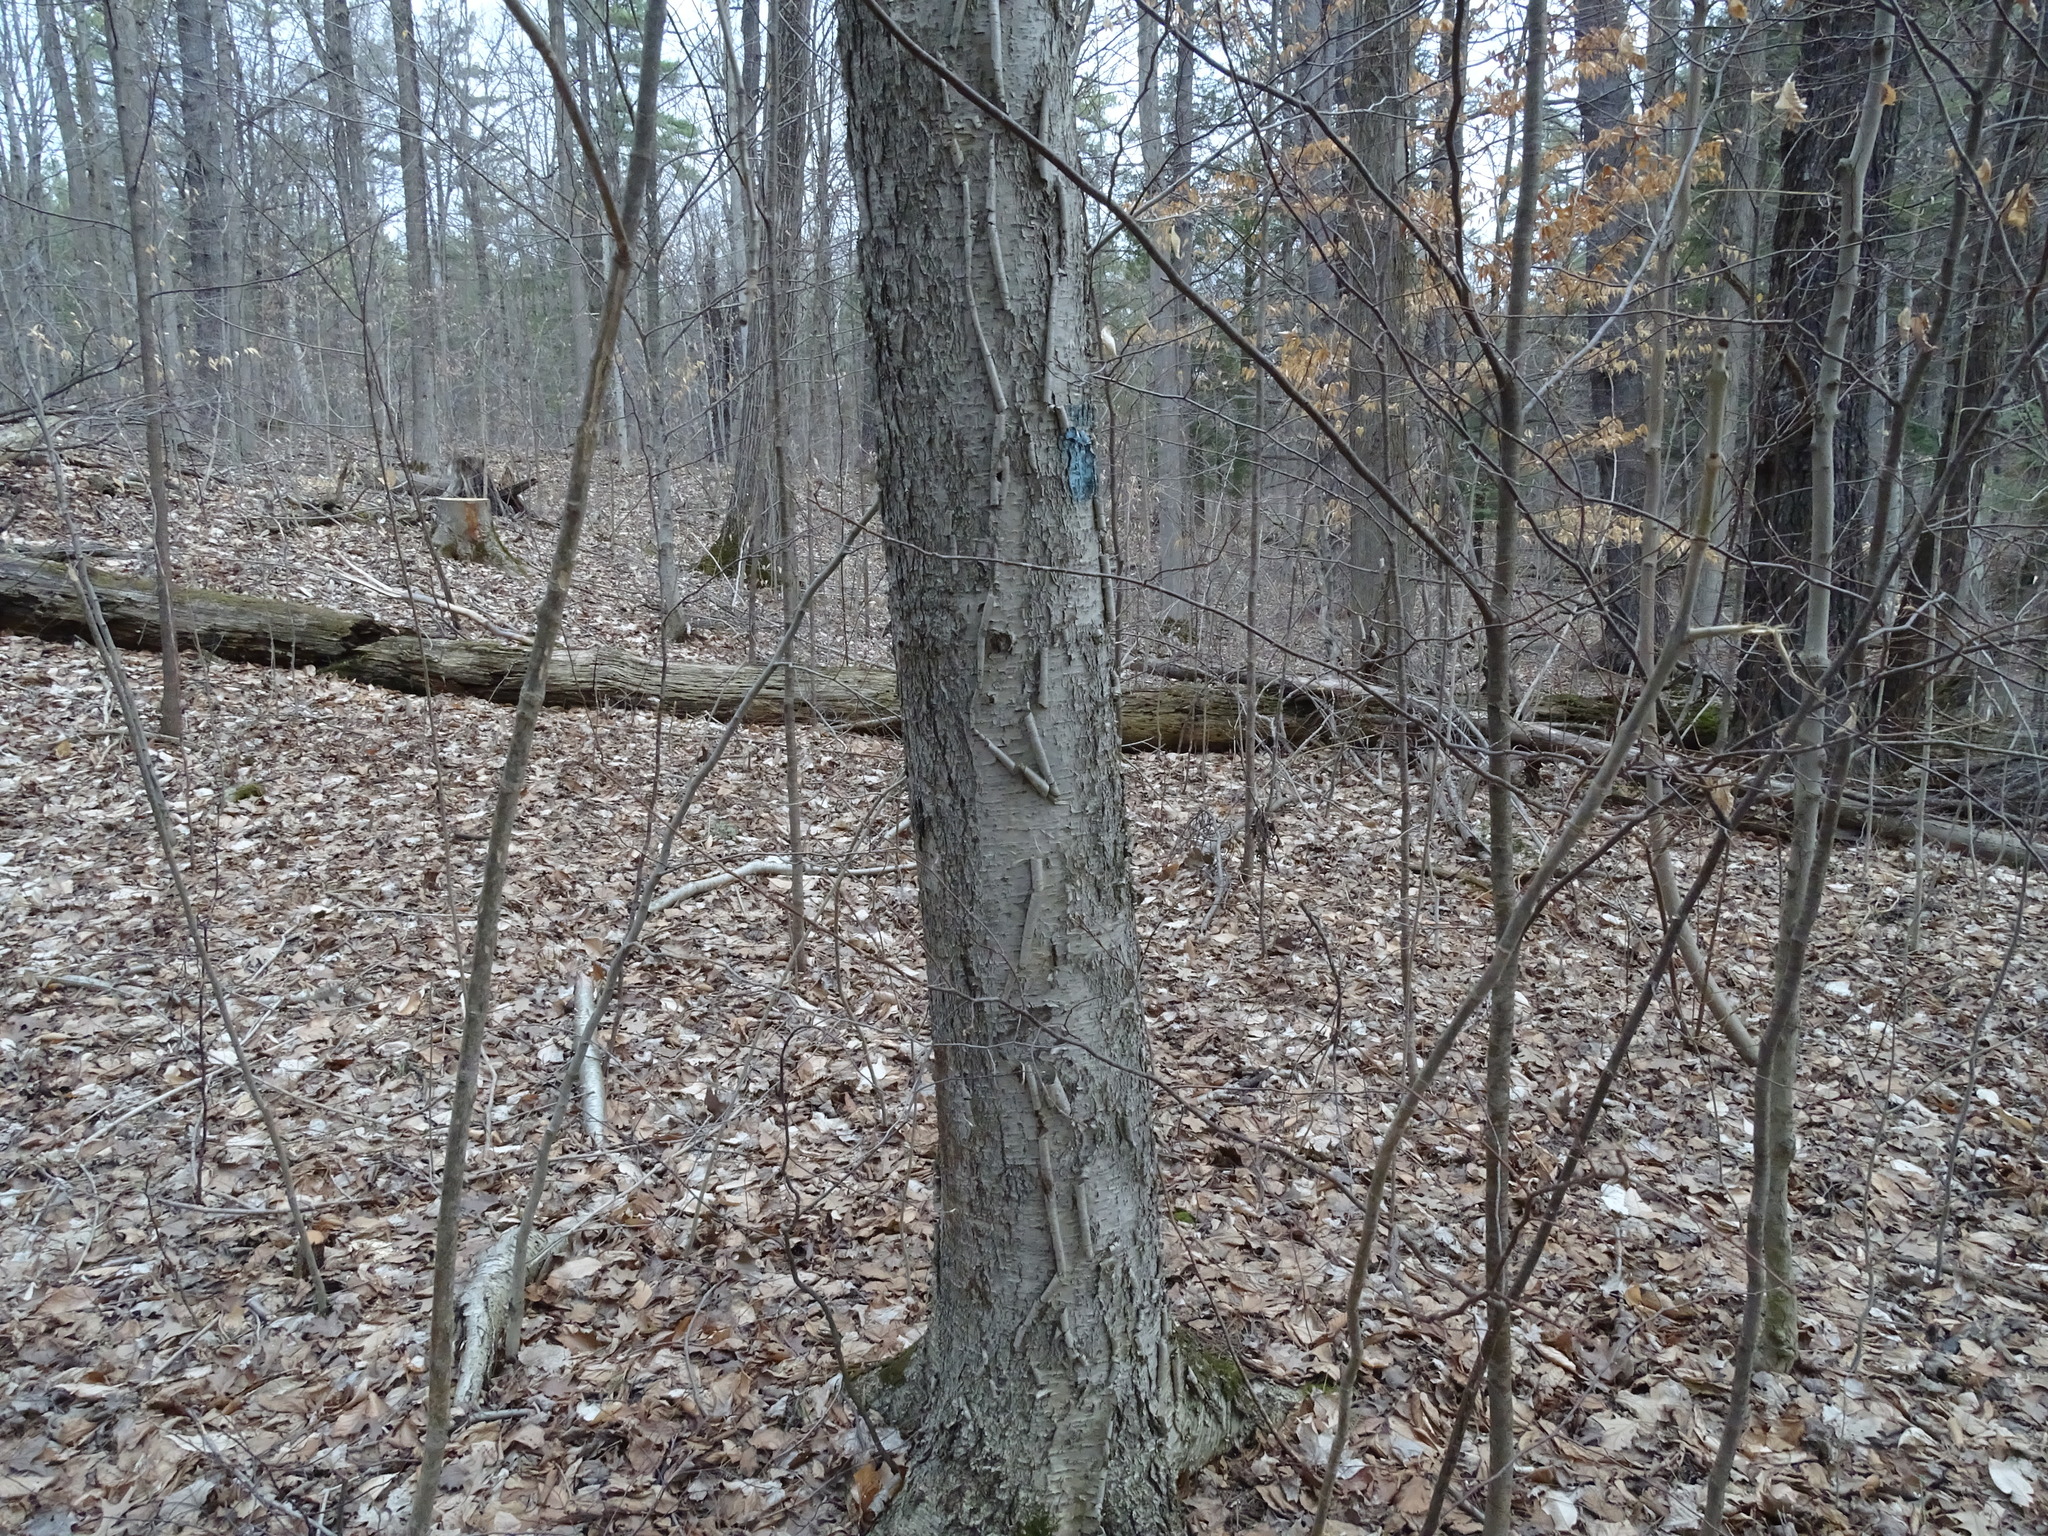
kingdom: Plantae
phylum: Tracheophyta
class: Magnoliopsida
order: Fagales
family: Betulaceae
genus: Betula
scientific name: Betula alleghaniensis
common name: Yellow birch
